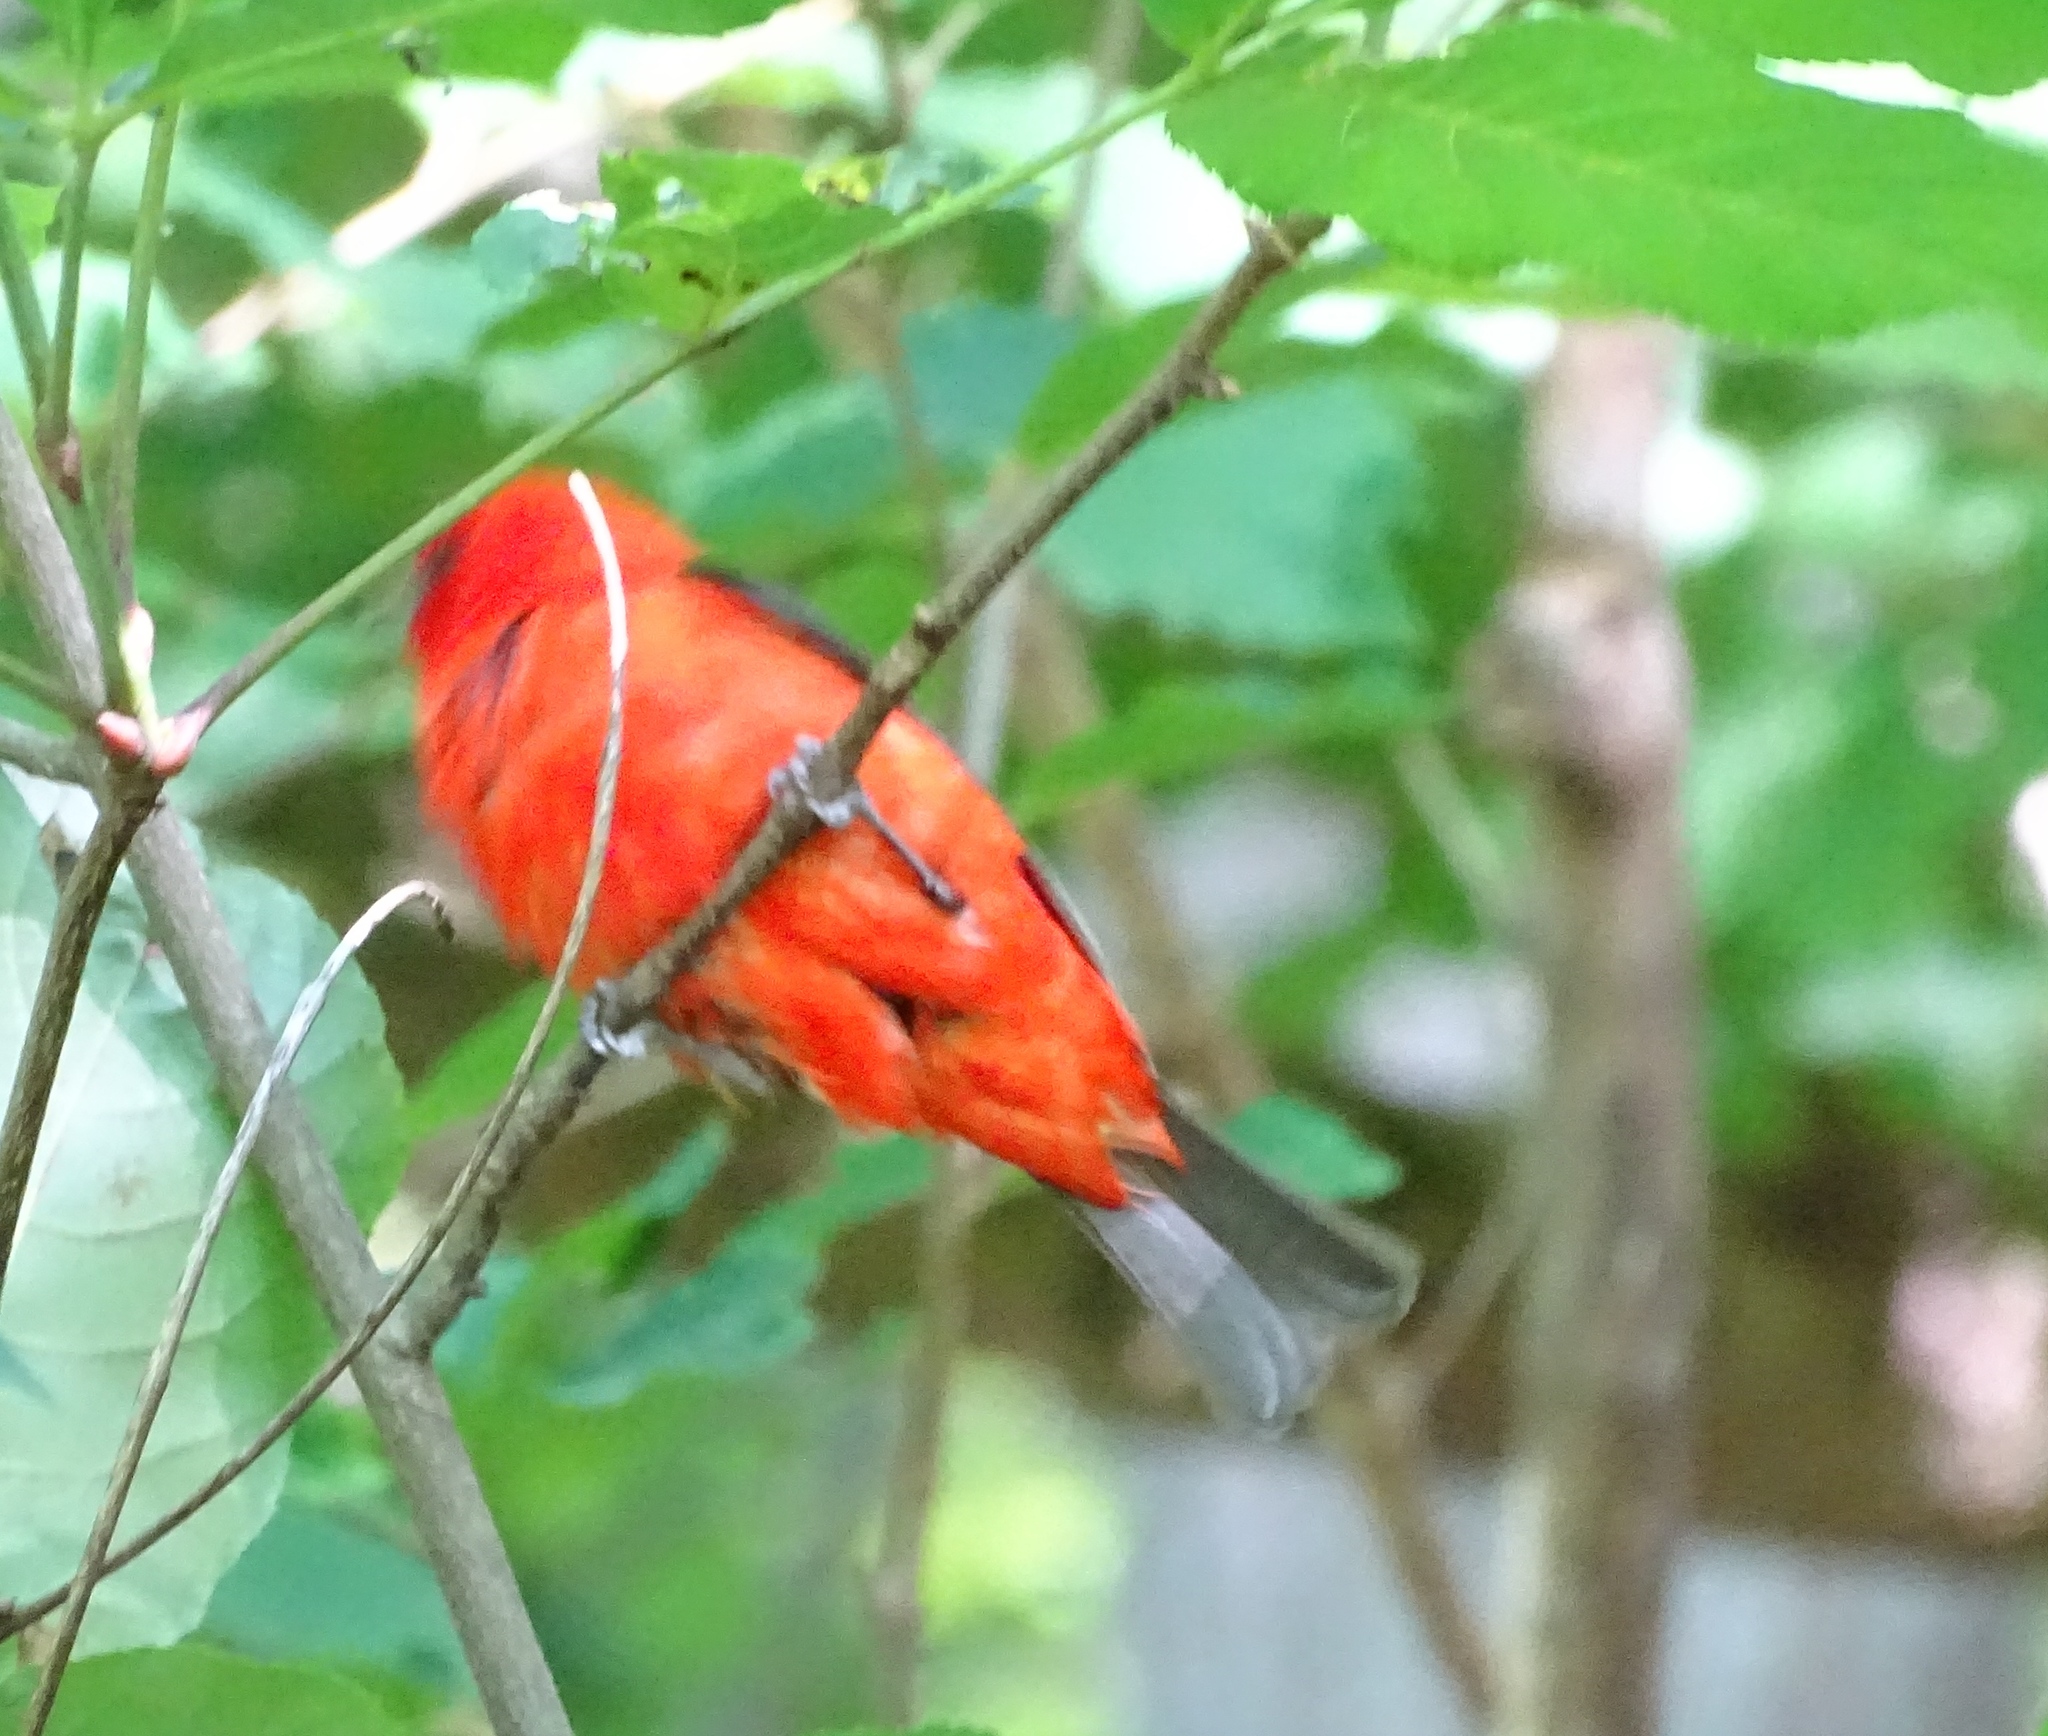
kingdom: Animalia
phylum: Chordata
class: Aves
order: Passeriformes
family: Cardinalidae
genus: Piranga
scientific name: Piranga olivacea
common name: Scarlet tanager
